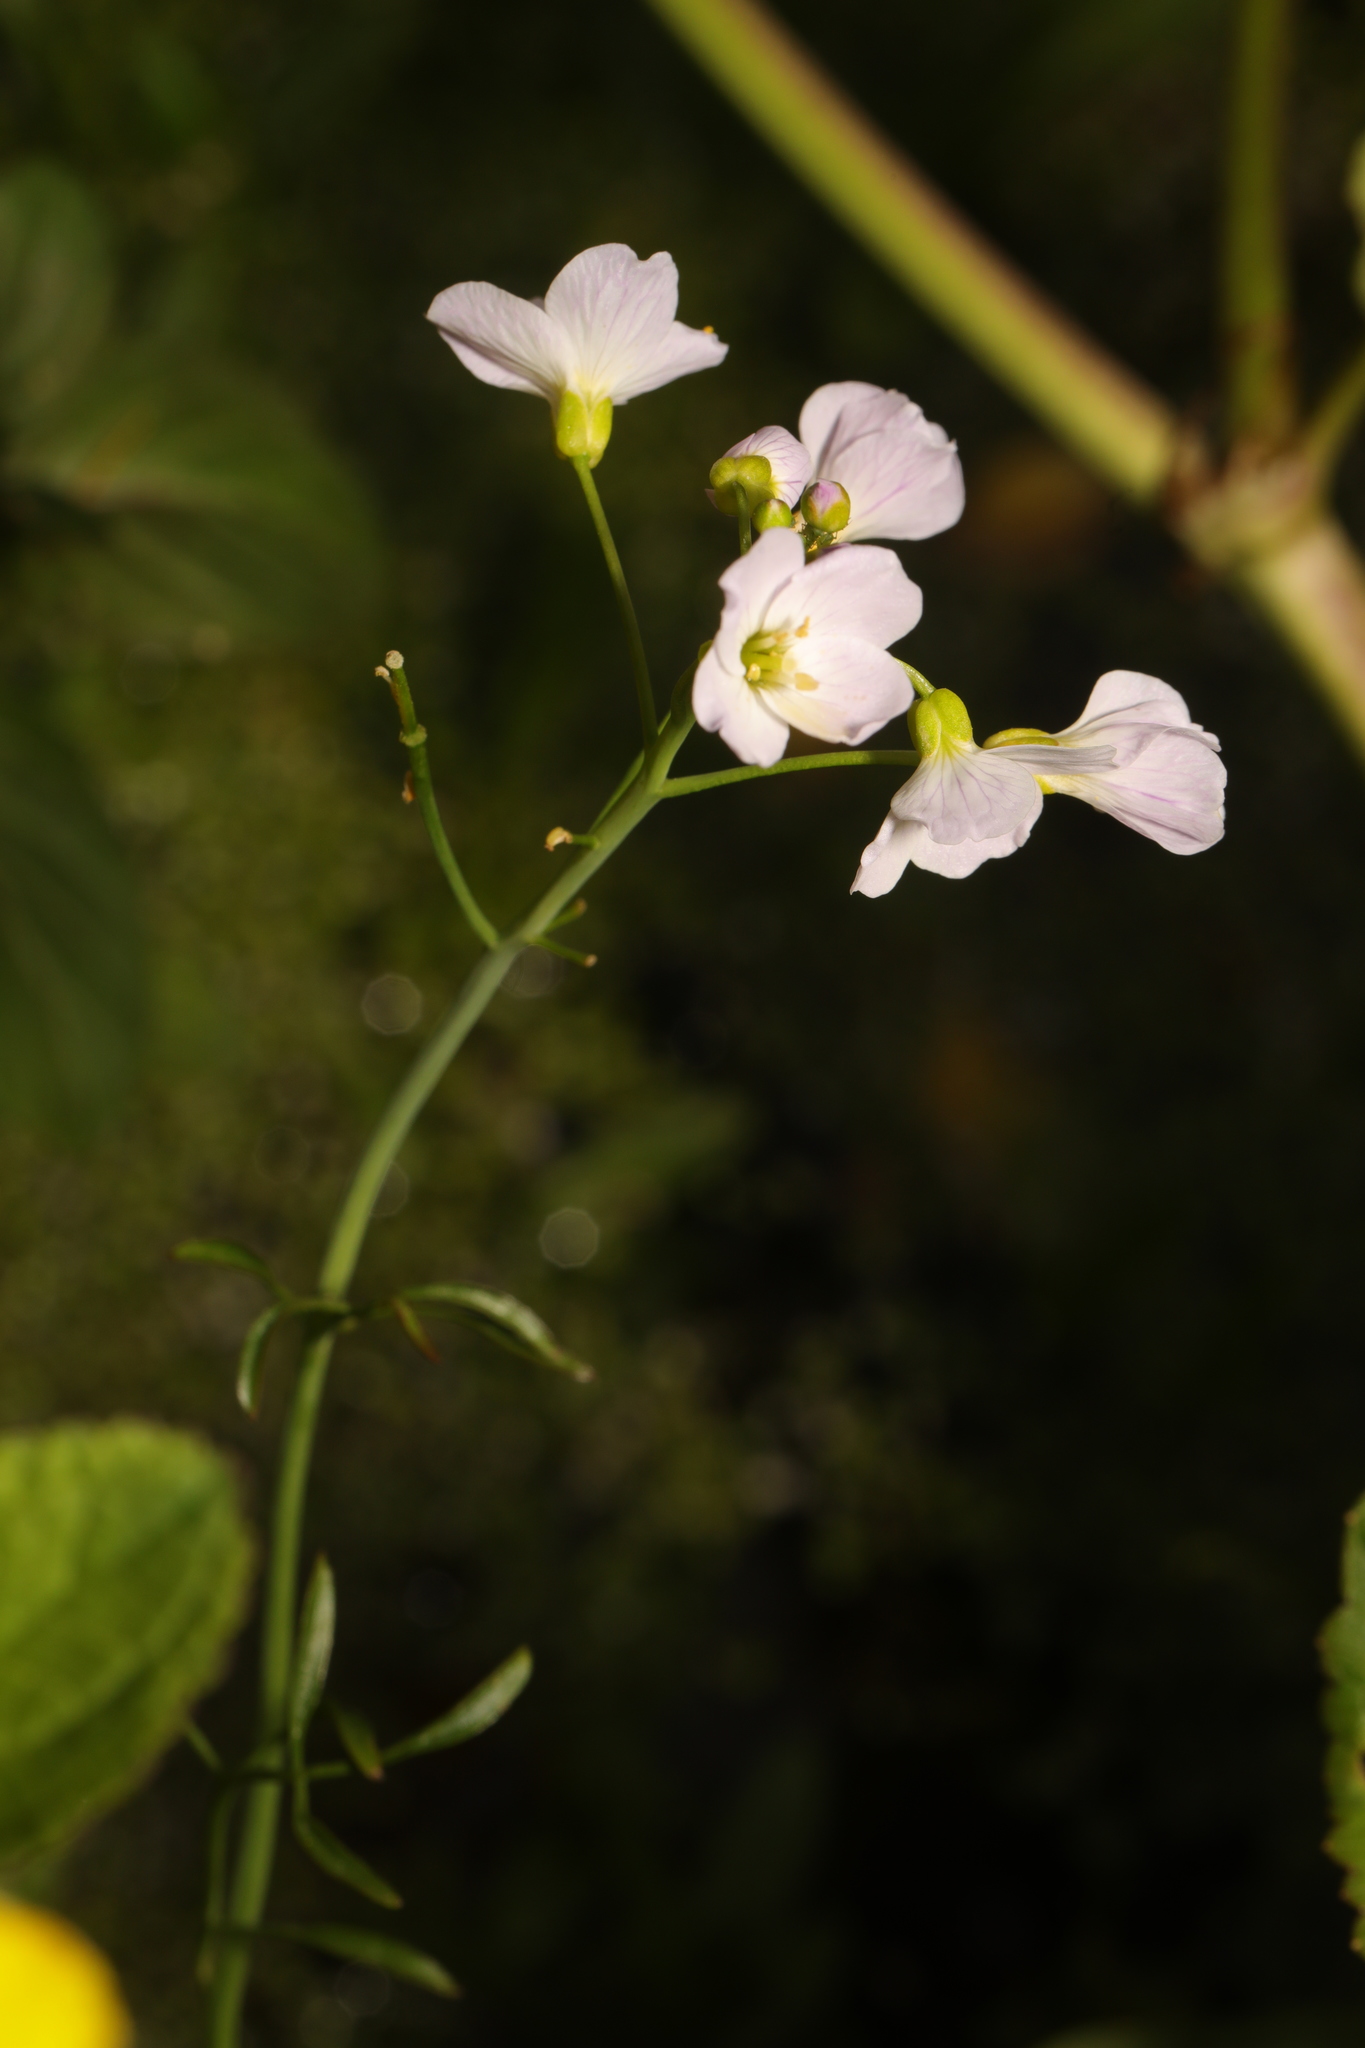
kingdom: Plantae
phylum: Tracheophyta
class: Magnoliopsida
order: Brassicales
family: Brassicaceae
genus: Cardamine
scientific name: Cardamine pratensis
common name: Cuckoo flower
